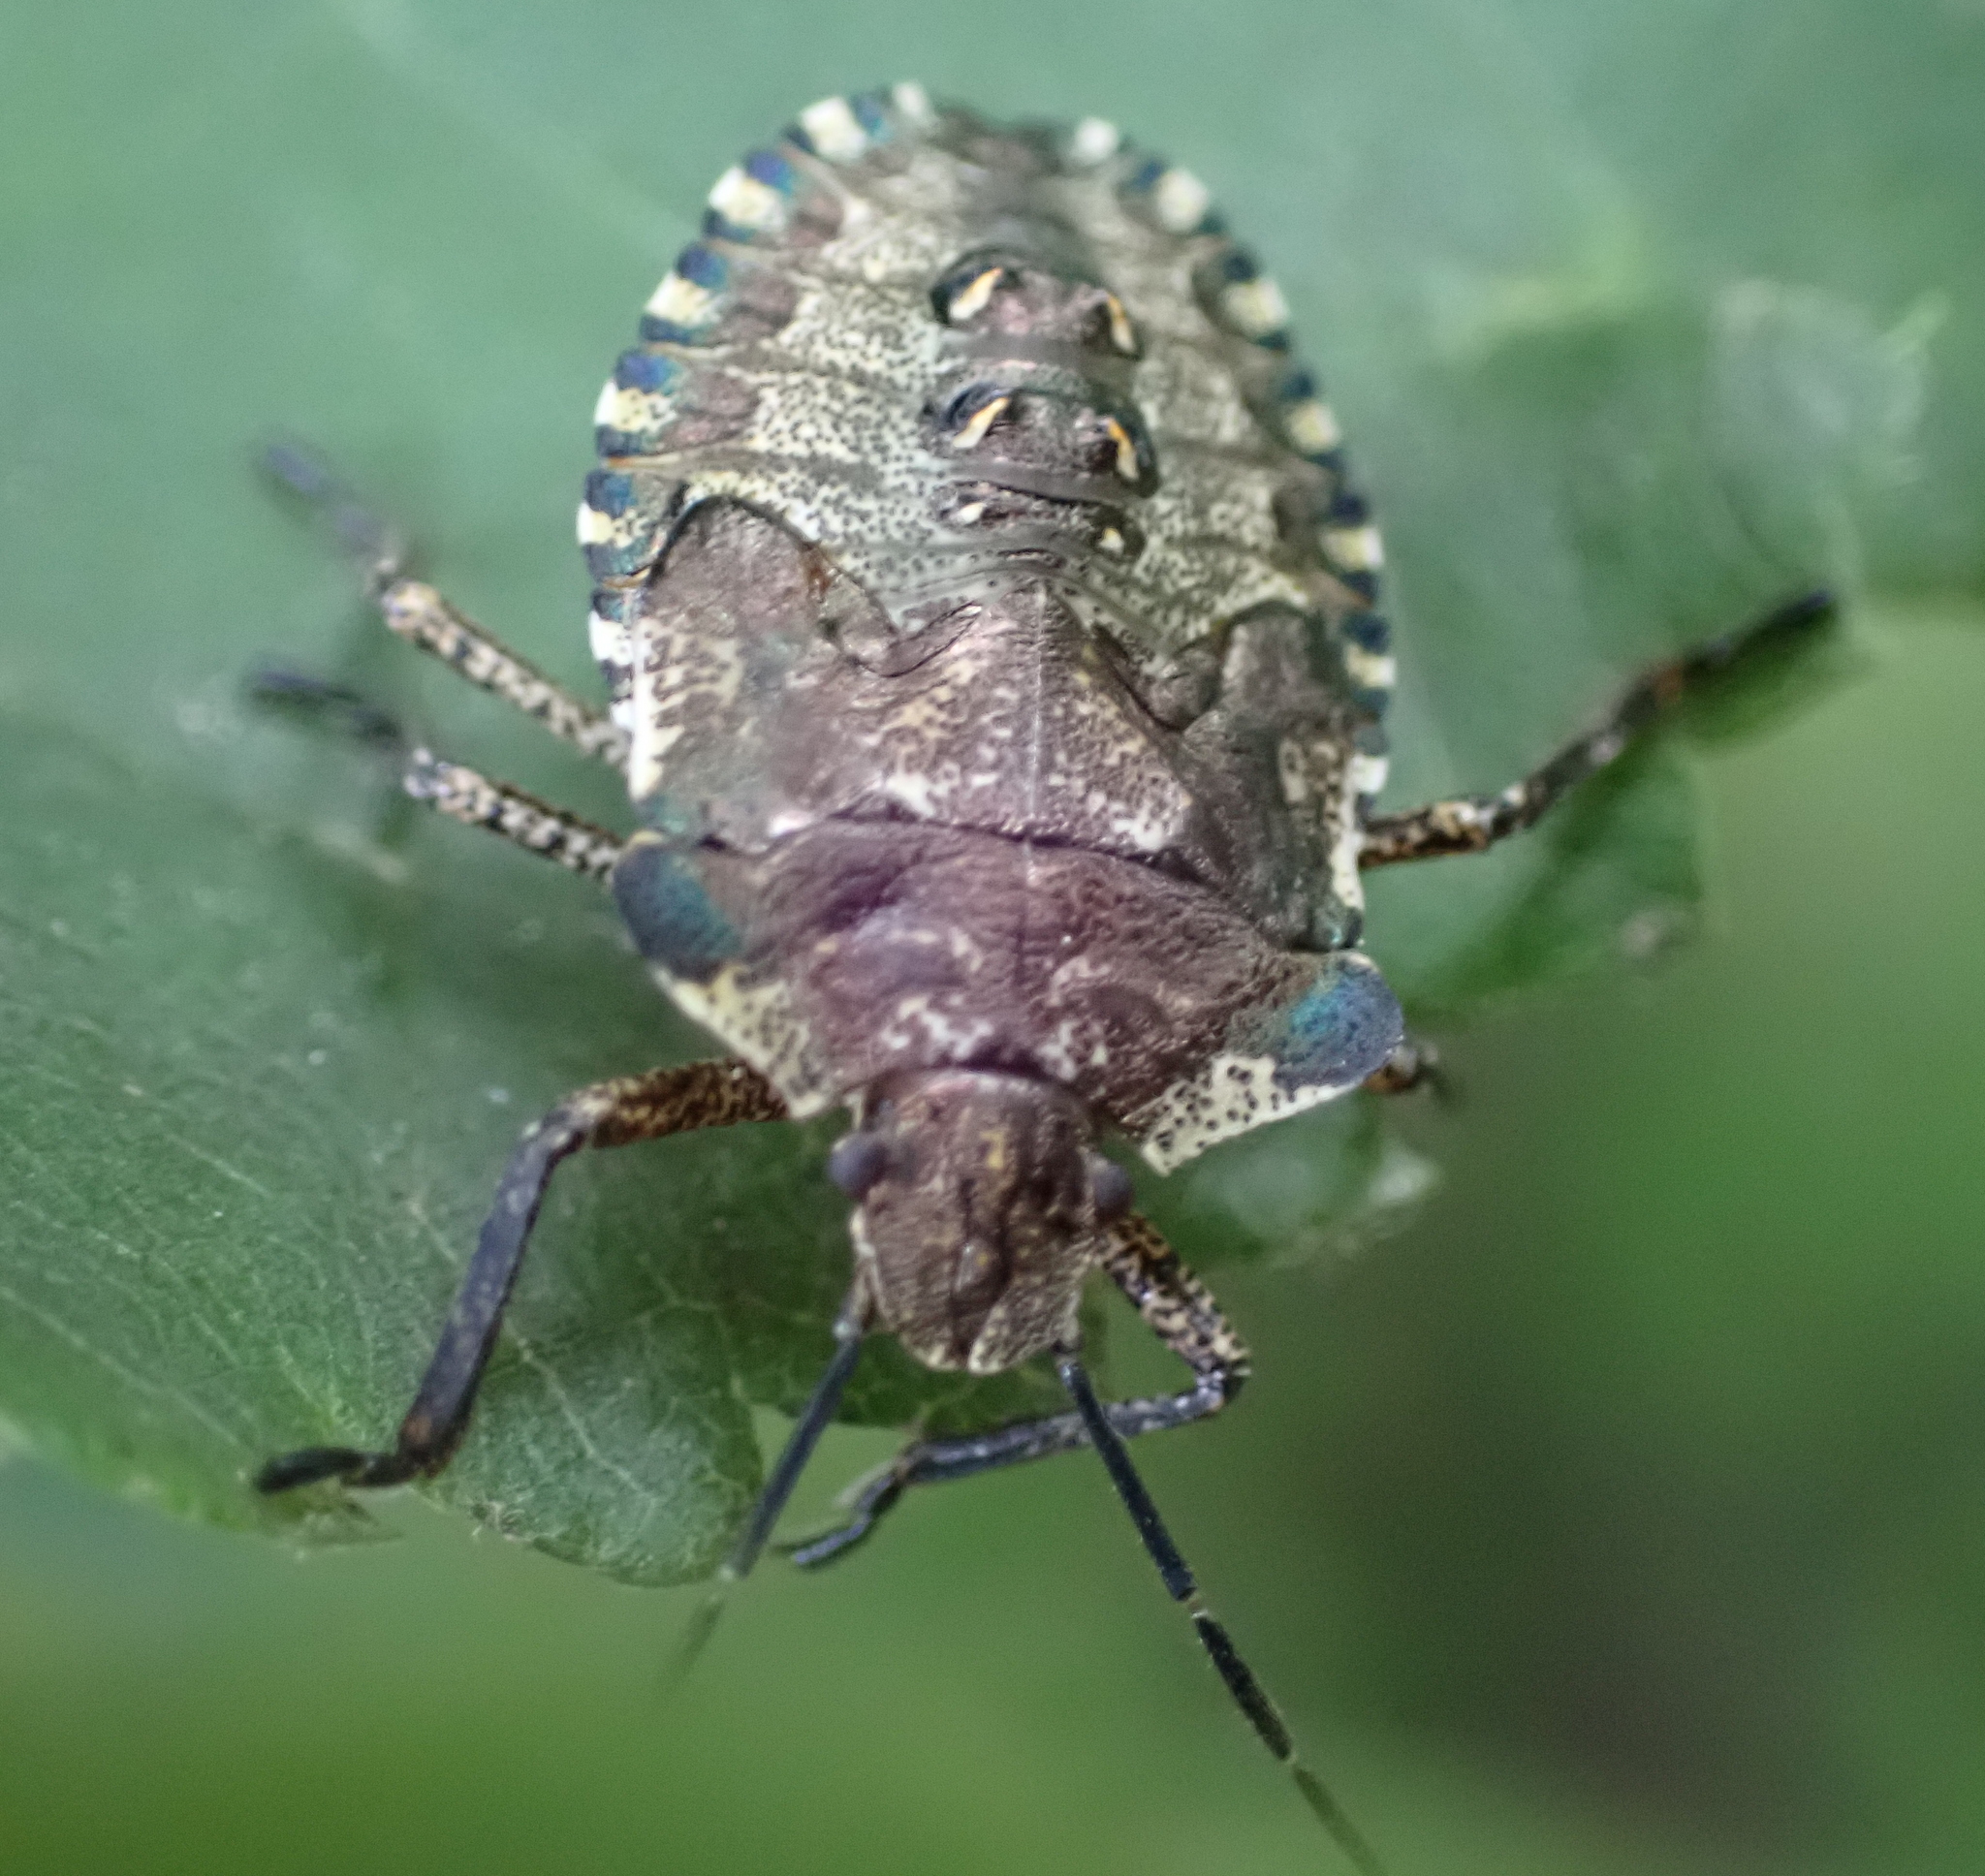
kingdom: Animalia
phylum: Arthropoda
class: Insecta
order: Hemiptera
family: Pentatomidae
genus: Pentatoma
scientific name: Pentatoma rufipes
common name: Forest bug
